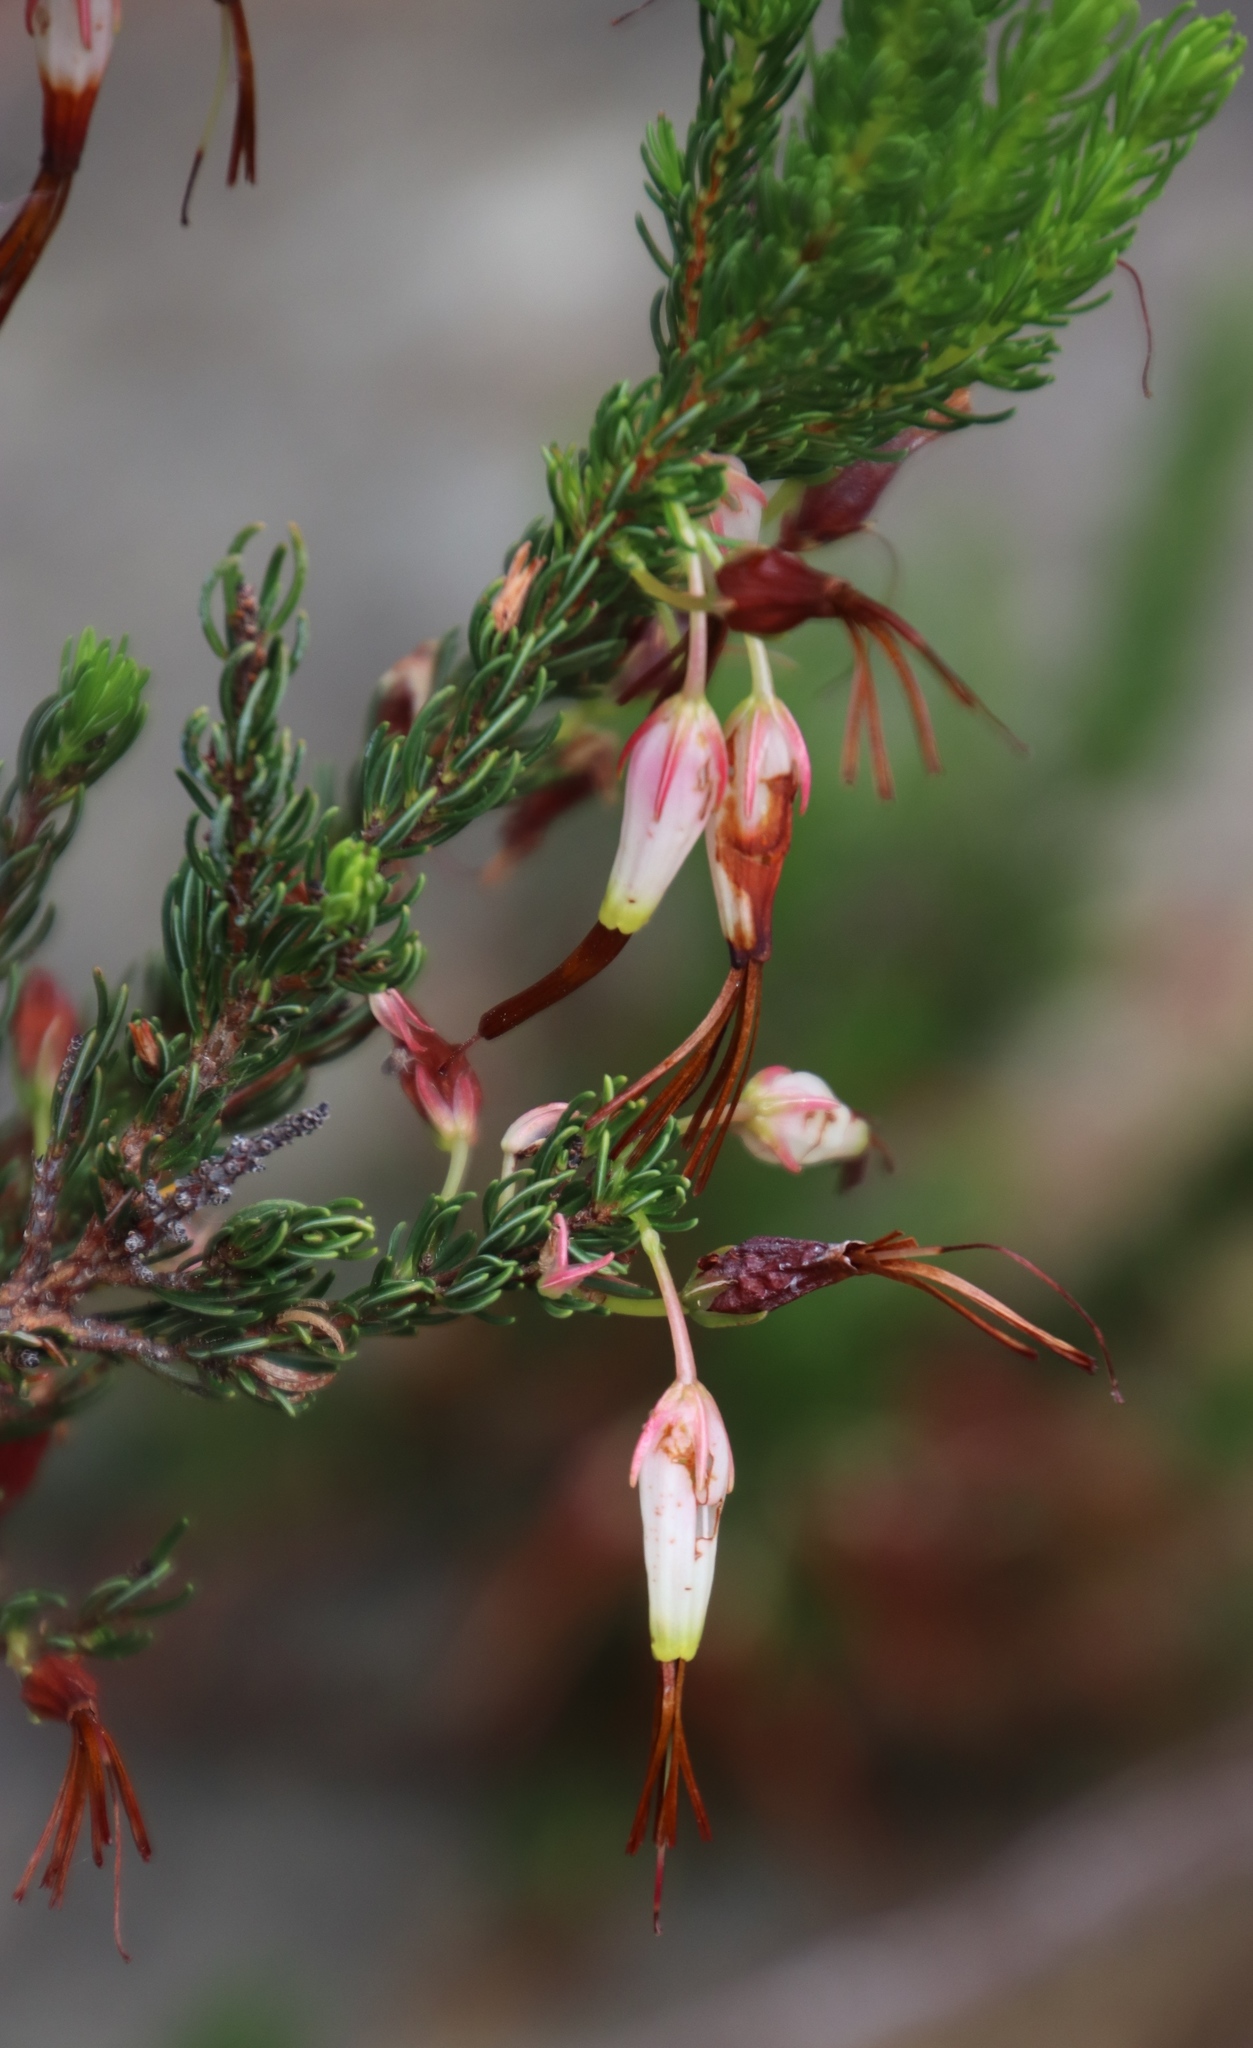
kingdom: Plantae
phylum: Tracheophyta
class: Magnoliopsida
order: Ericales
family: Ericaceae
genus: Erica
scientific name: Erica plukenetii
